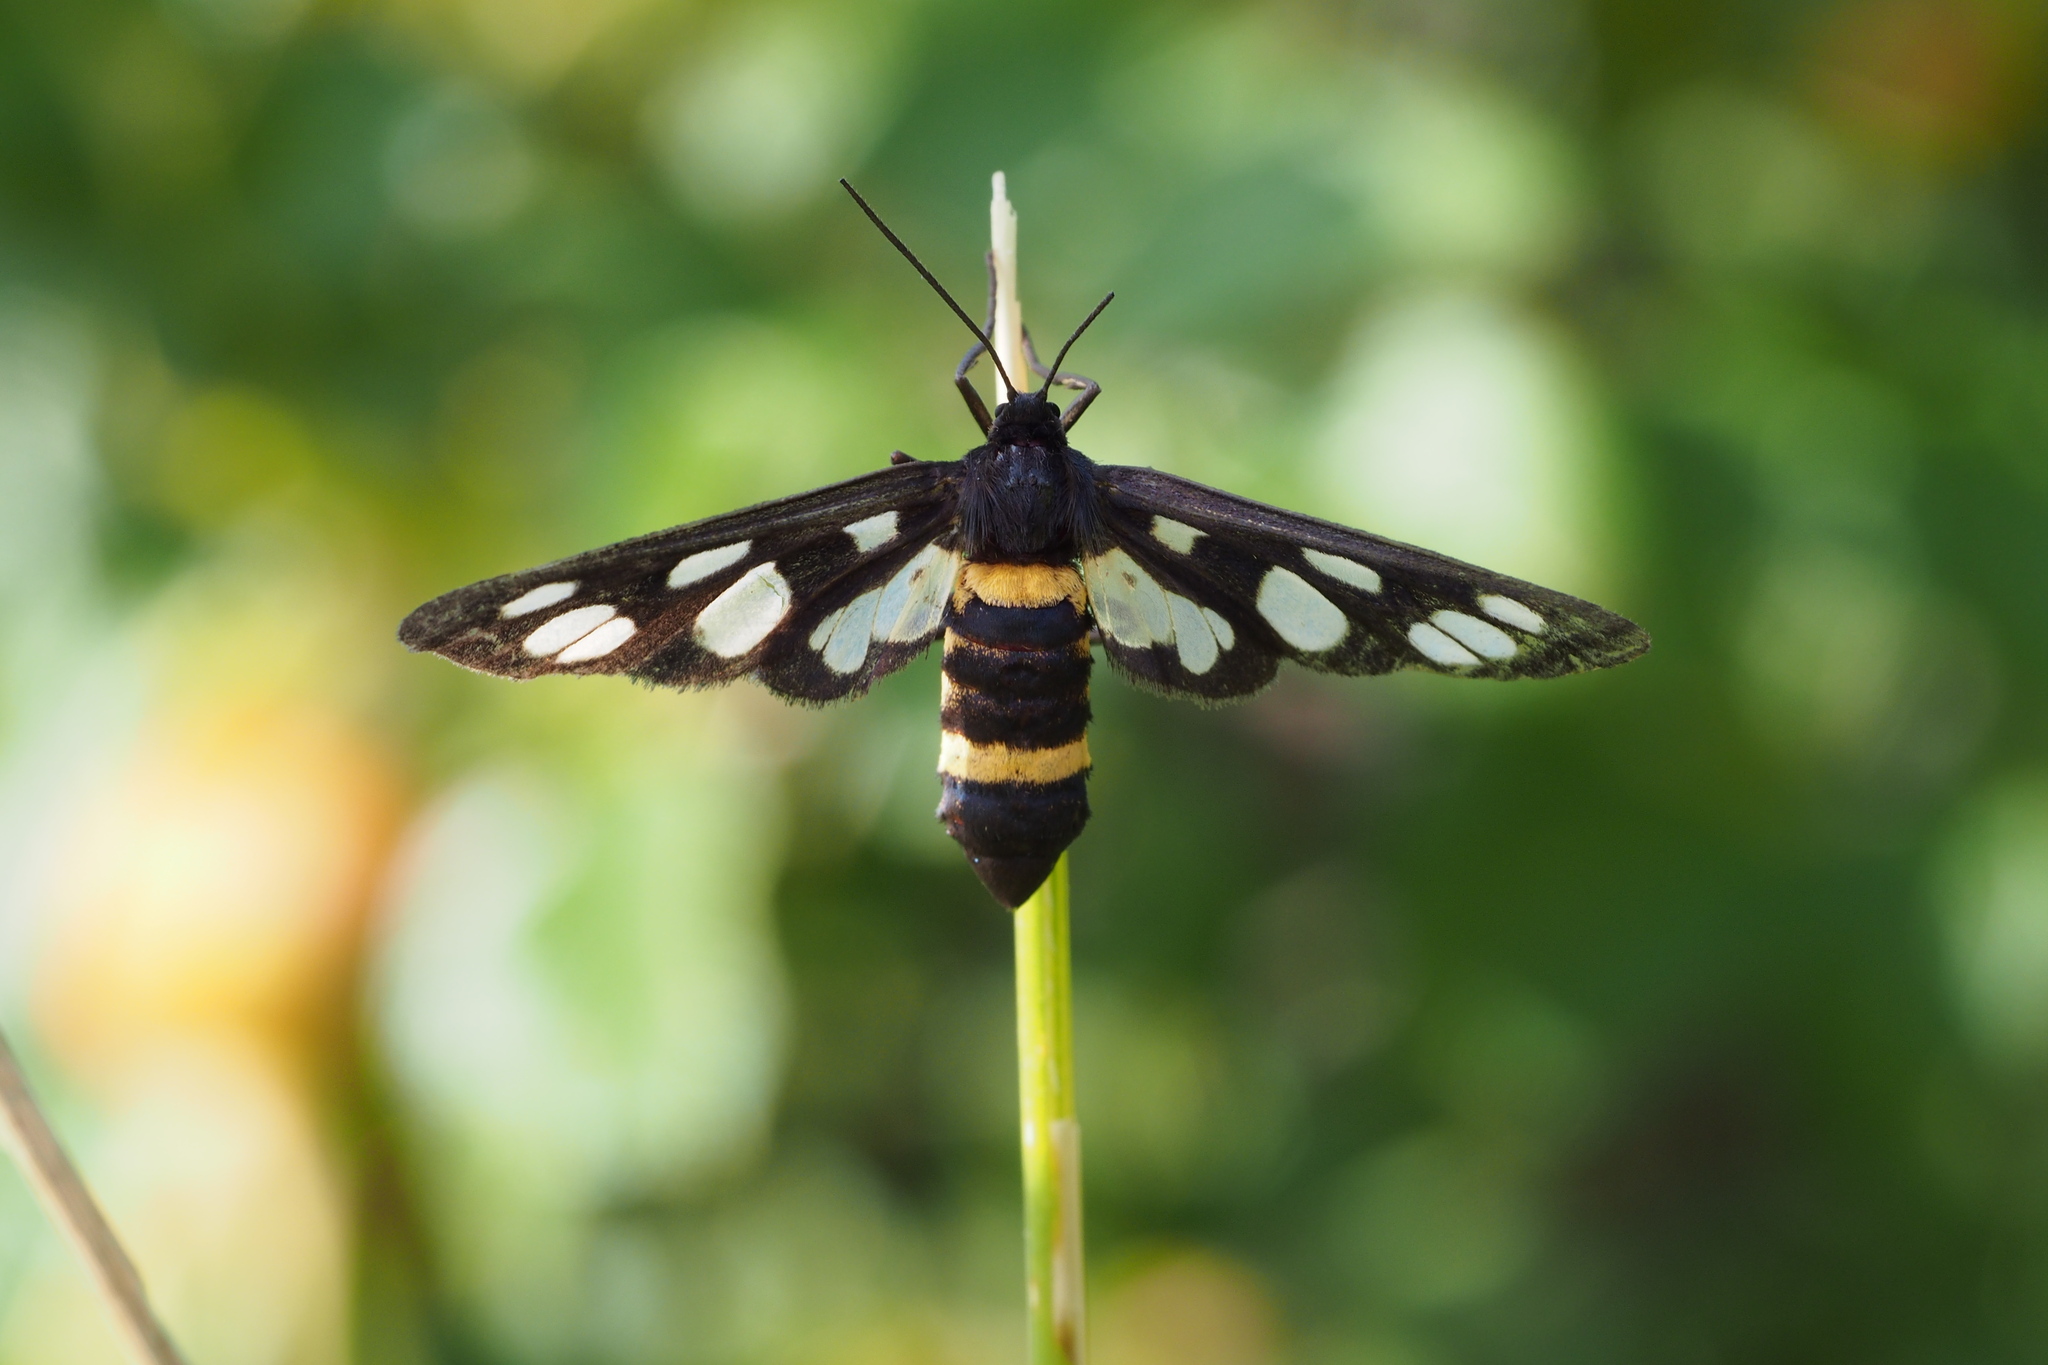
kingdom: Animalia
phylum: Arthropoda
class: Insecta
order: Lepidoptera
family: Erebidae
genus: Amata
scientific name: Amata fortunei
